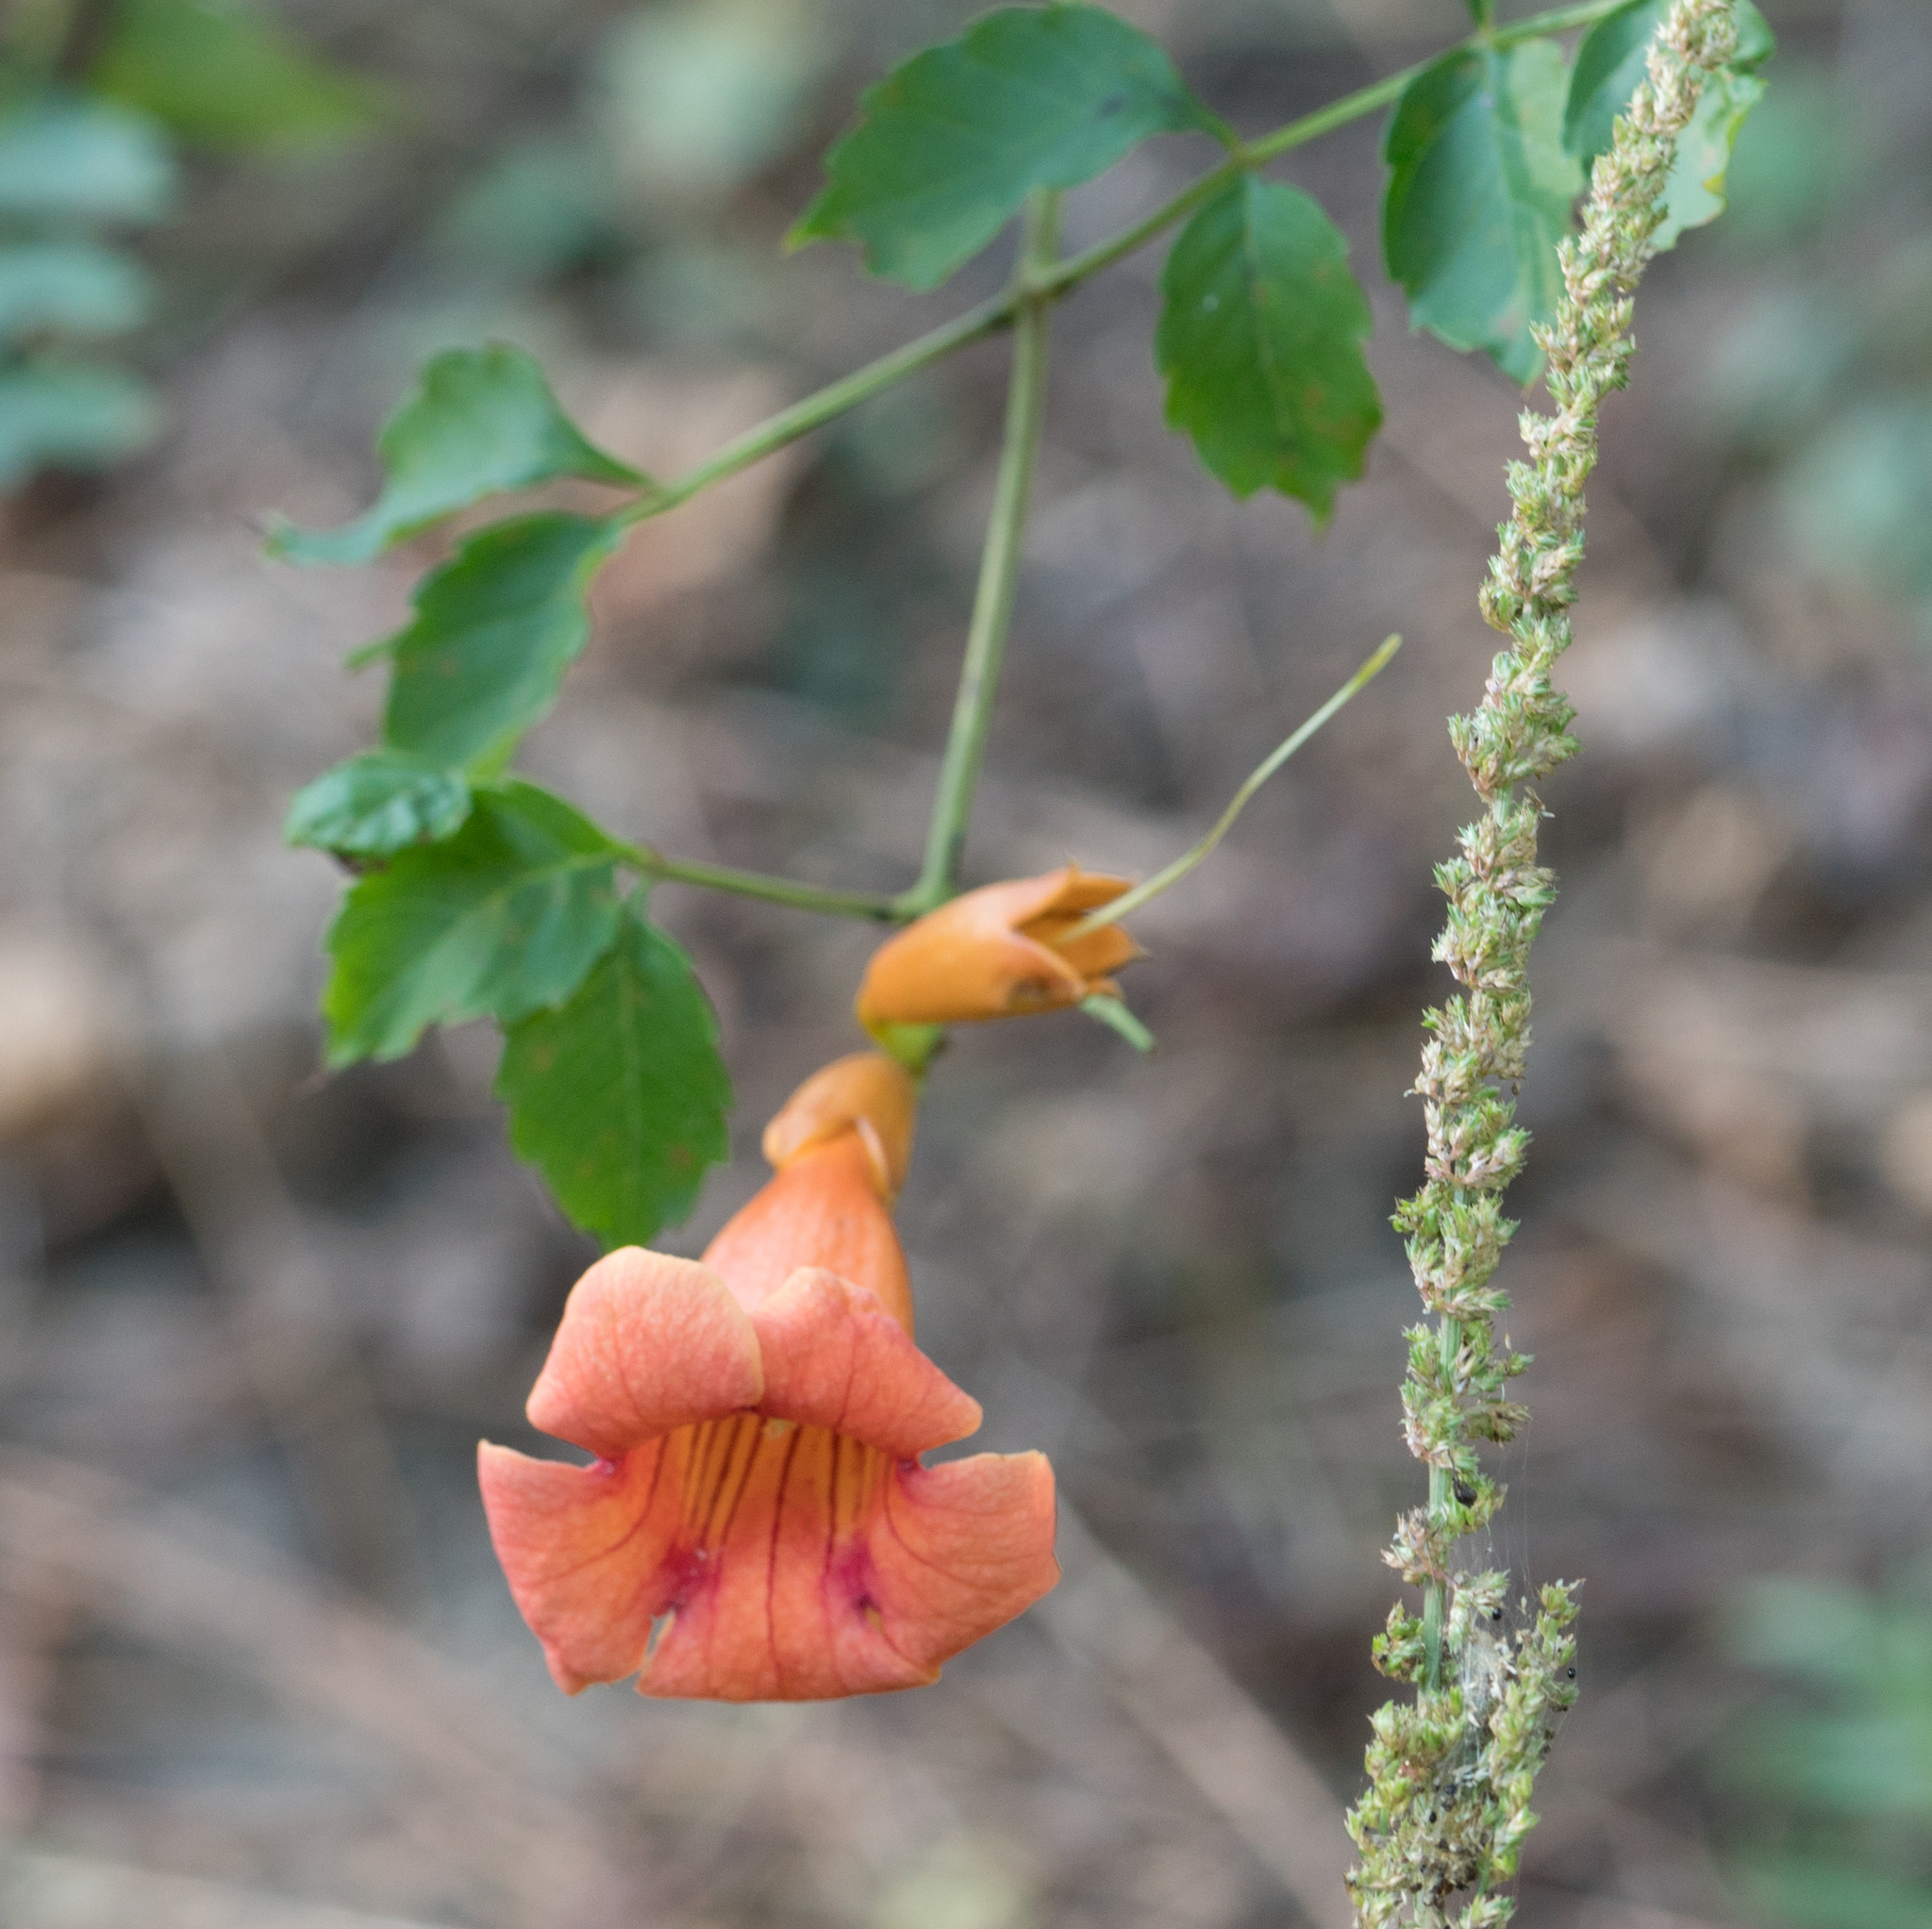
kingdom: Plantae
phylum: Tracheophyta
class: Magnoliopsida
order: Lamiales
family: Bignoniaceae
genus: Campsis
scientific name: Campsis radicans
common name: Trumpet-creeper
